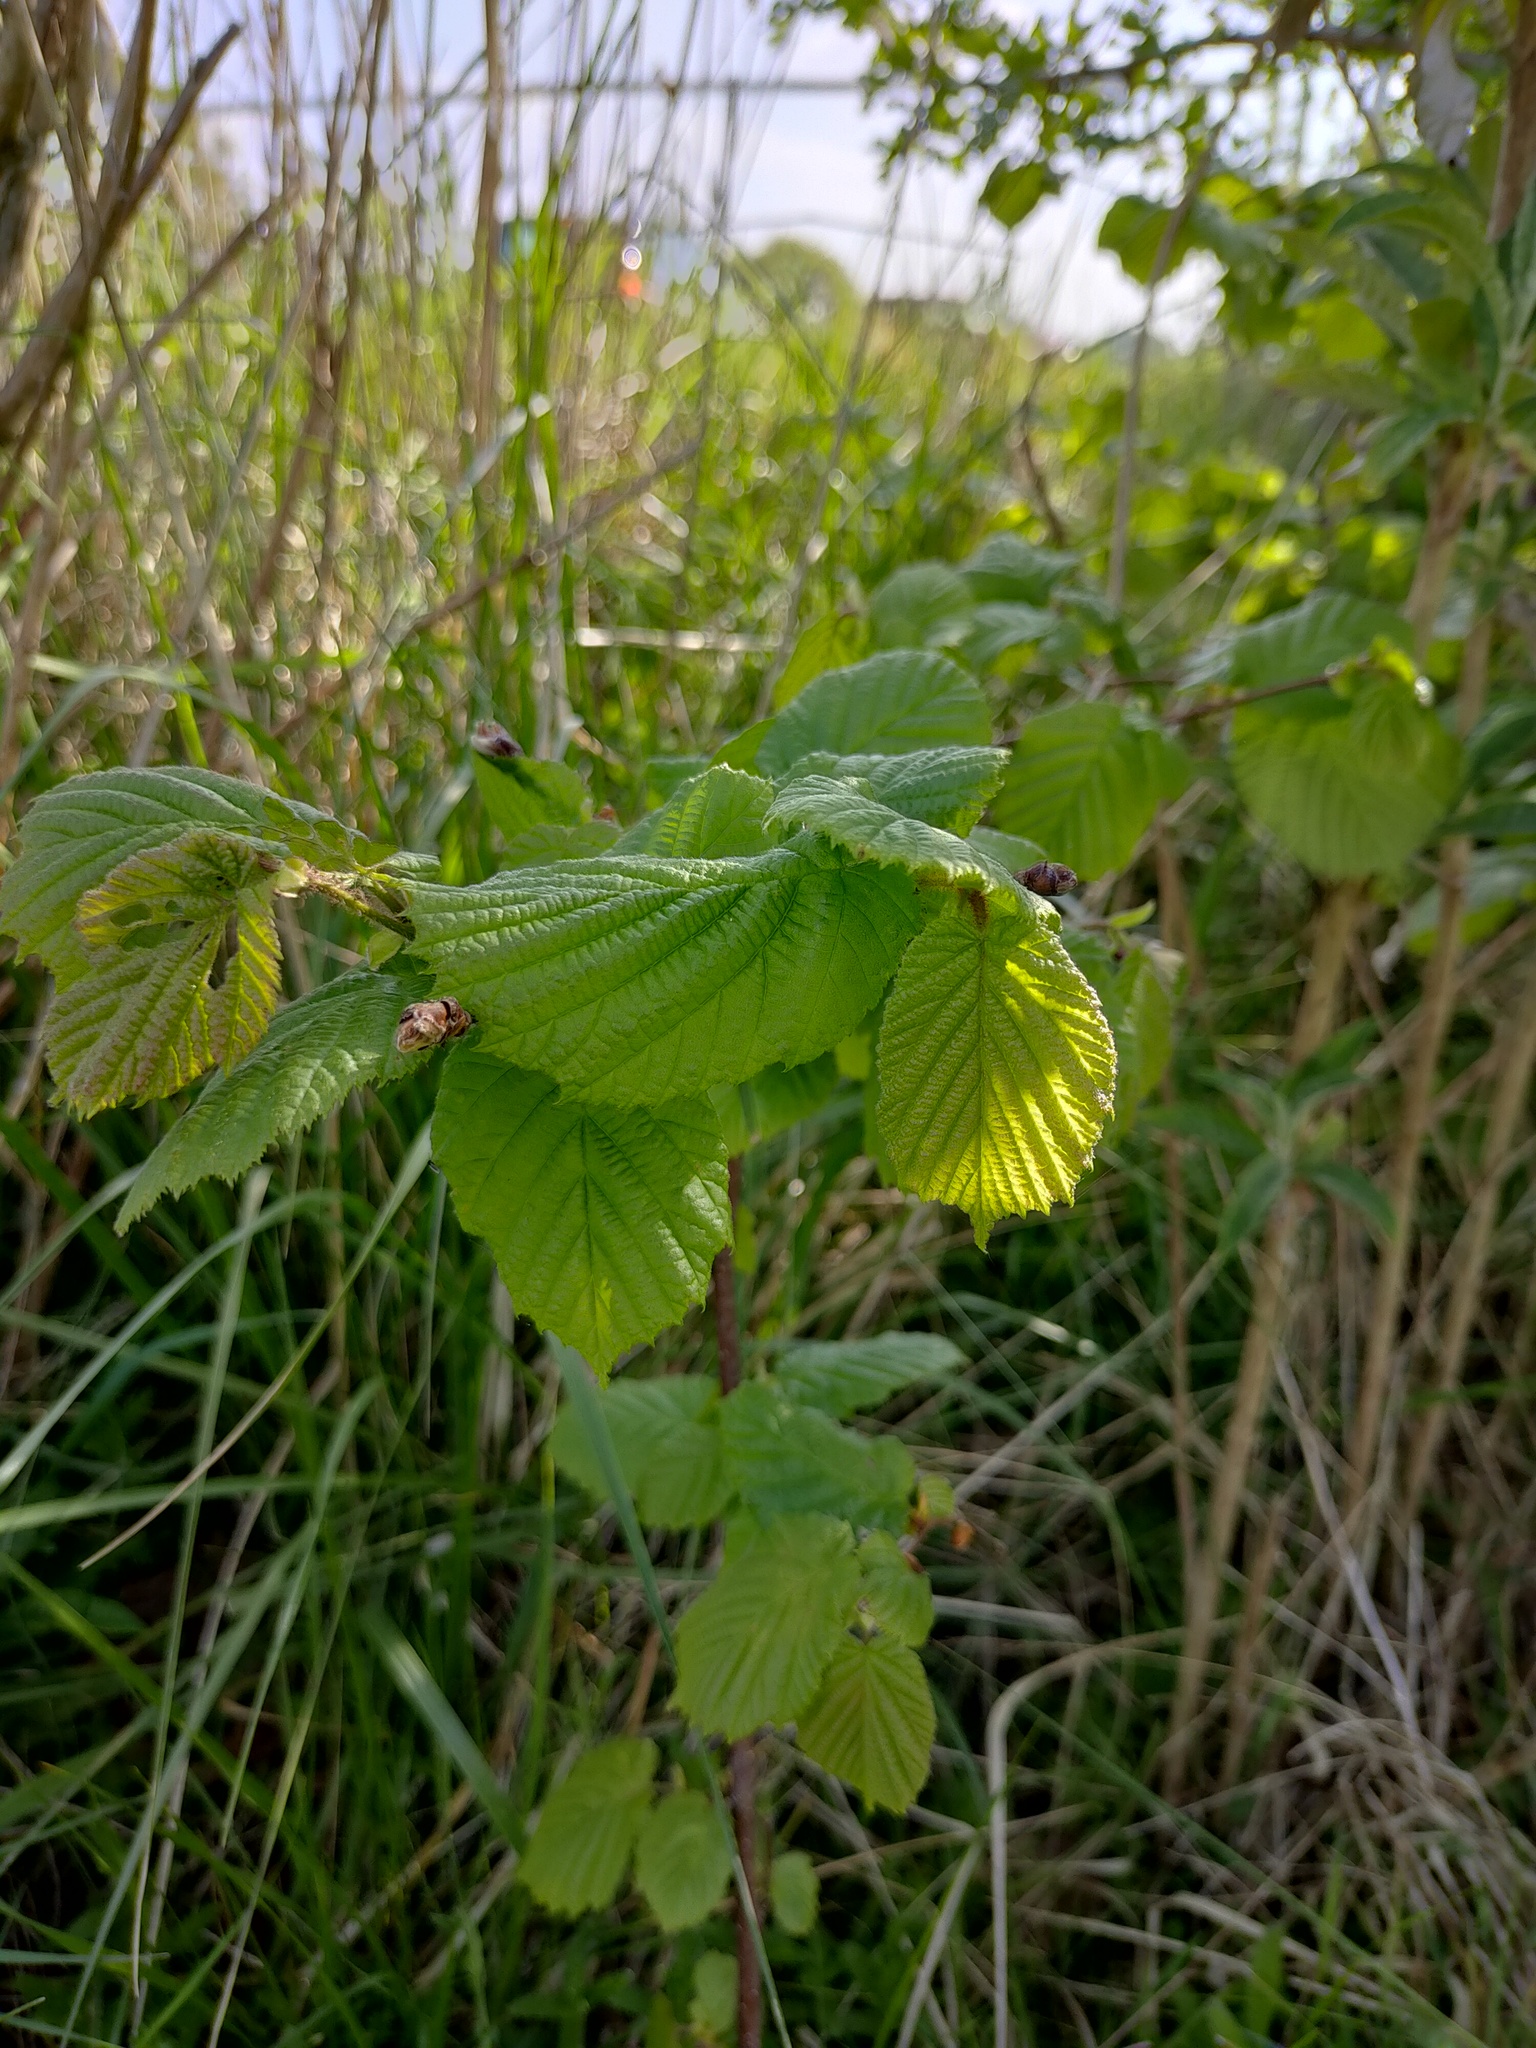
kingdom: Plantae
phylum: Tracheophyta
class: Magnoliopsida
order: Fagales
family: Betulaceae
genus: Corylus
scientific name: Corylus avellana
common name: European hazel
